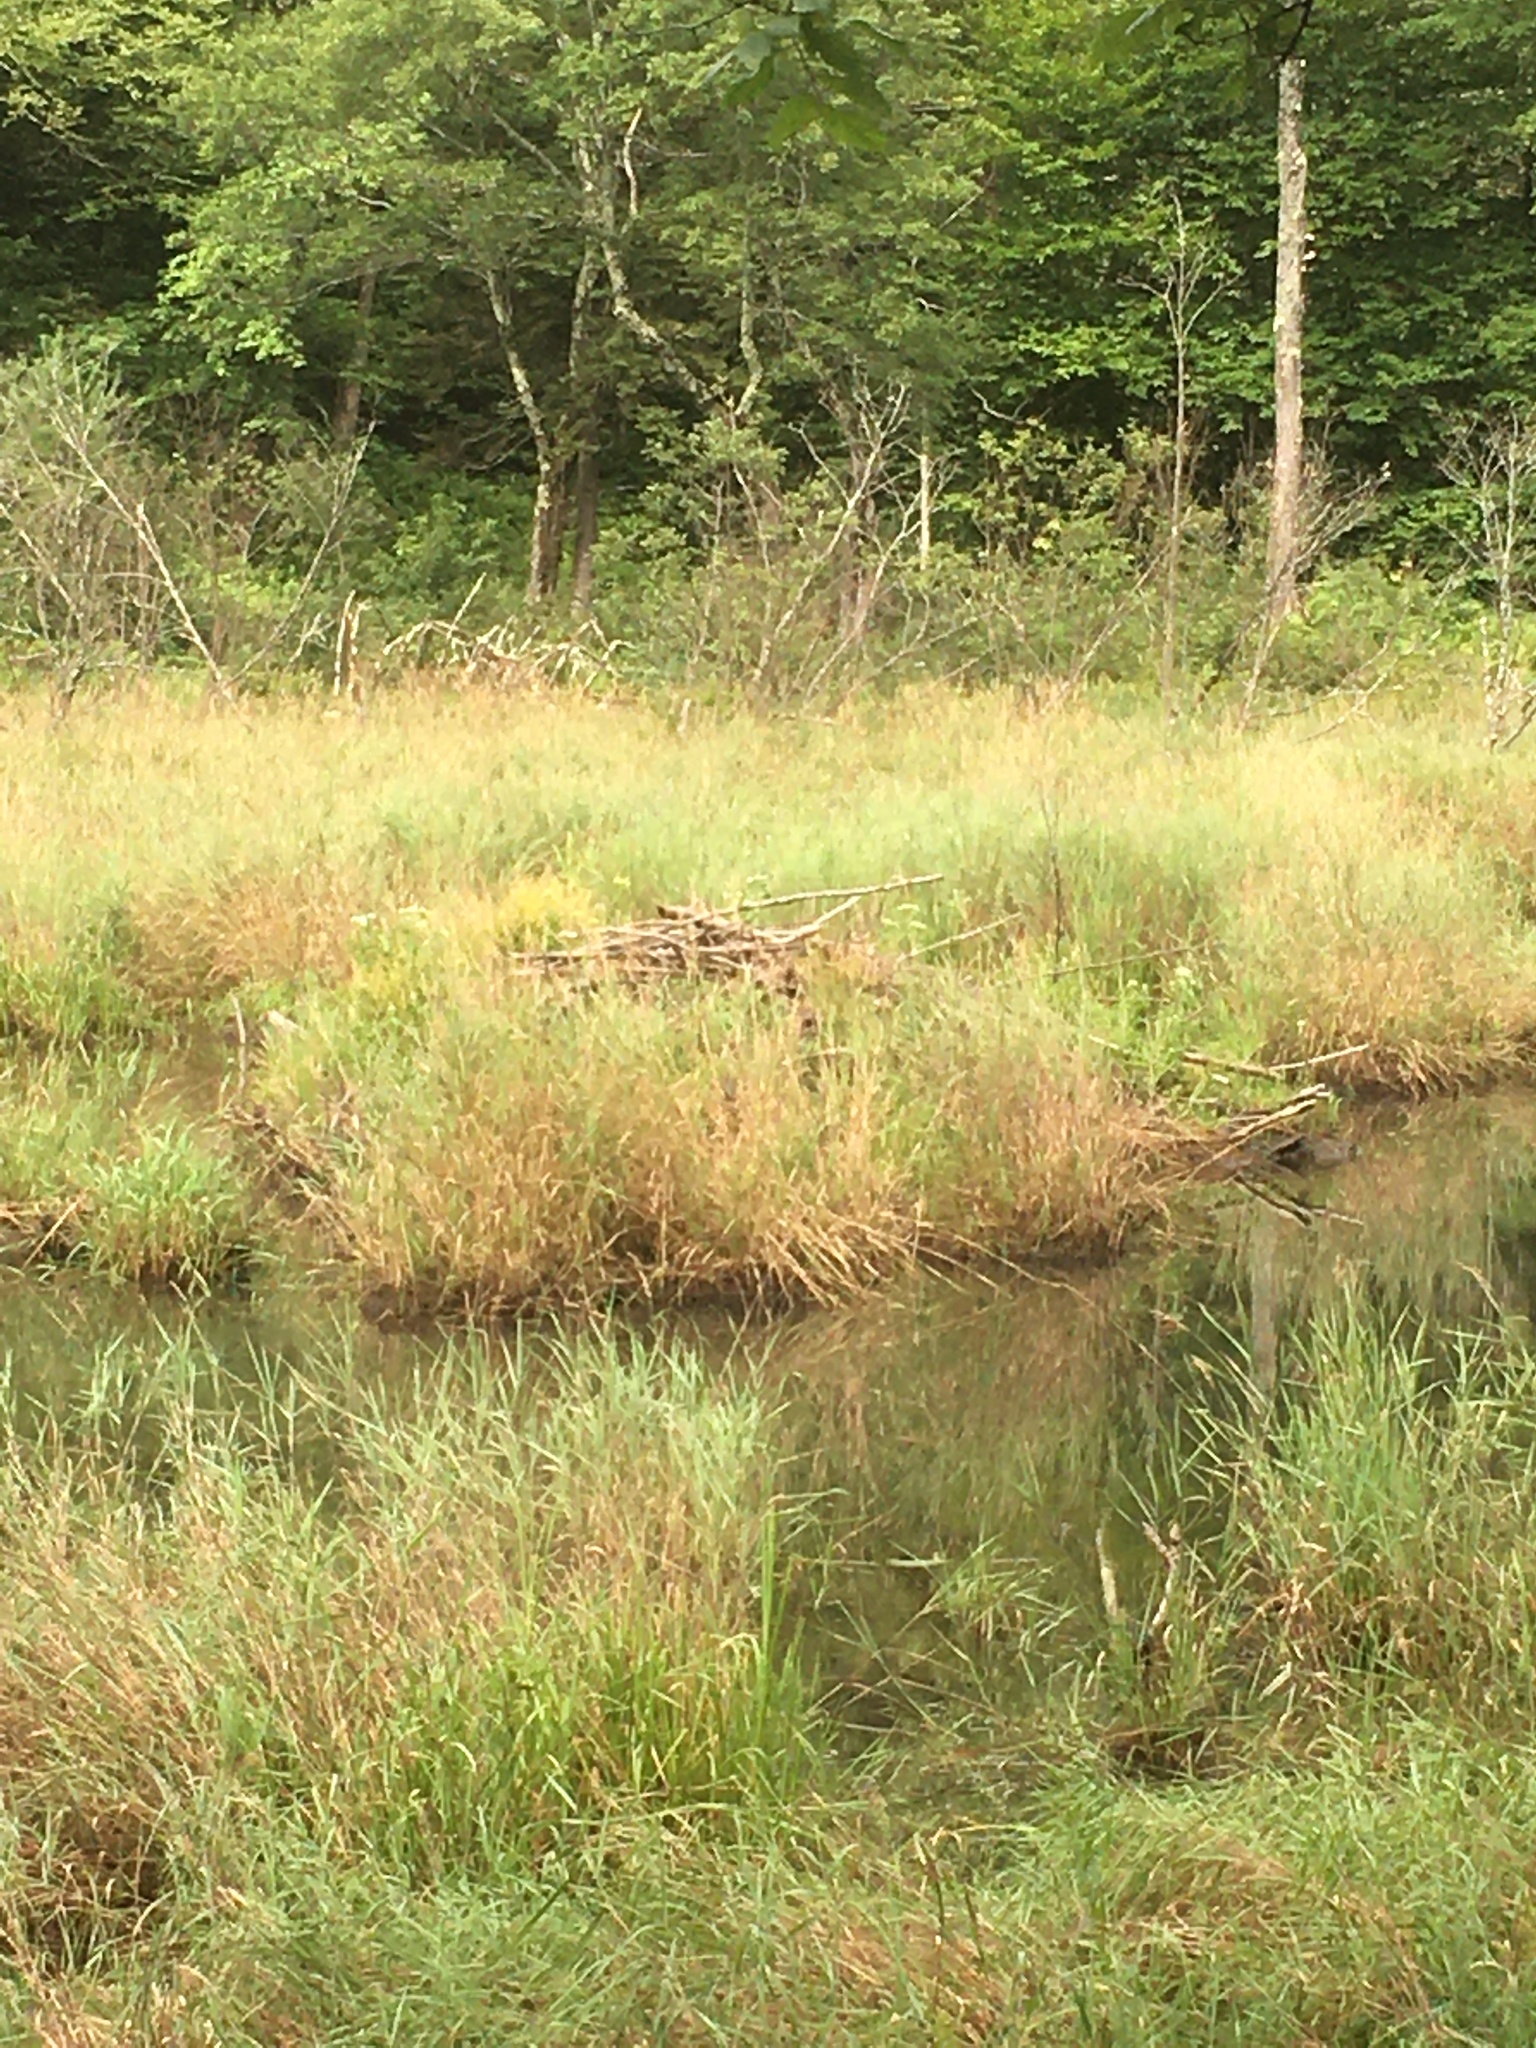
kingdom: Animalia
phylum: Chordata
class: Mammalia
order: Rodentia
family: Castoridae
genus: Castor
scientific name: Castor canadensis
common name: American beaver
